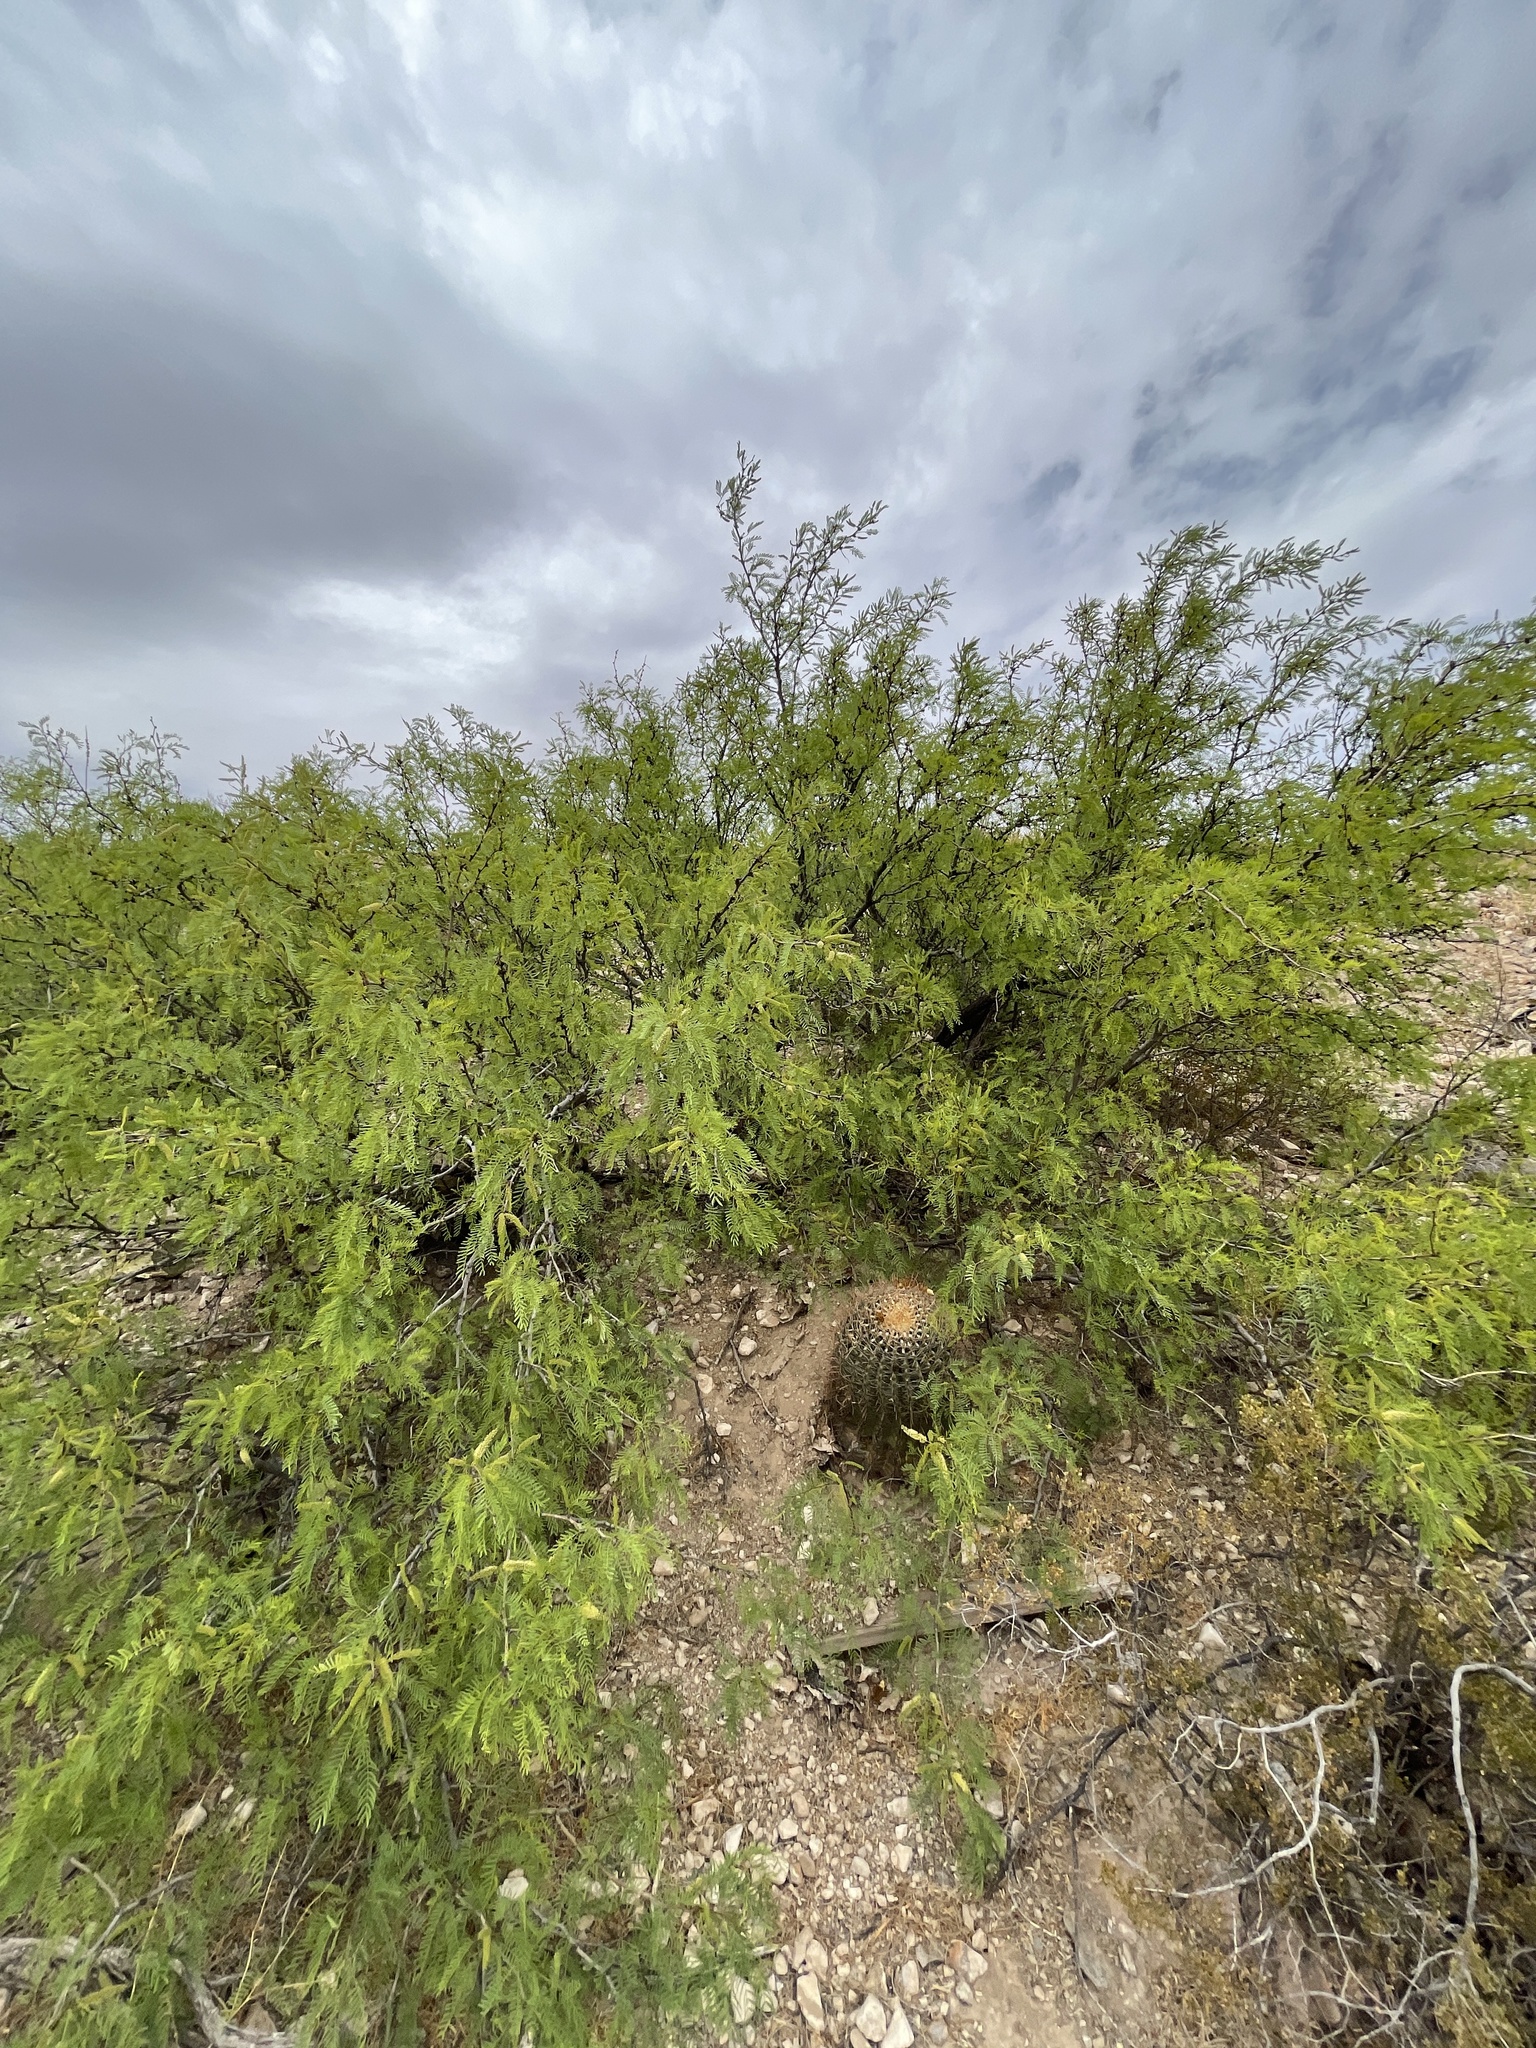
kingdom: Plantae
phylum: Tracheophyta
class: Magnoliopsida
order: Caryophyllales
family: Cactaceae
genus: Ferocactus
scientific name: Ferocactus wislizeni
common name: Candy barrel cactus
